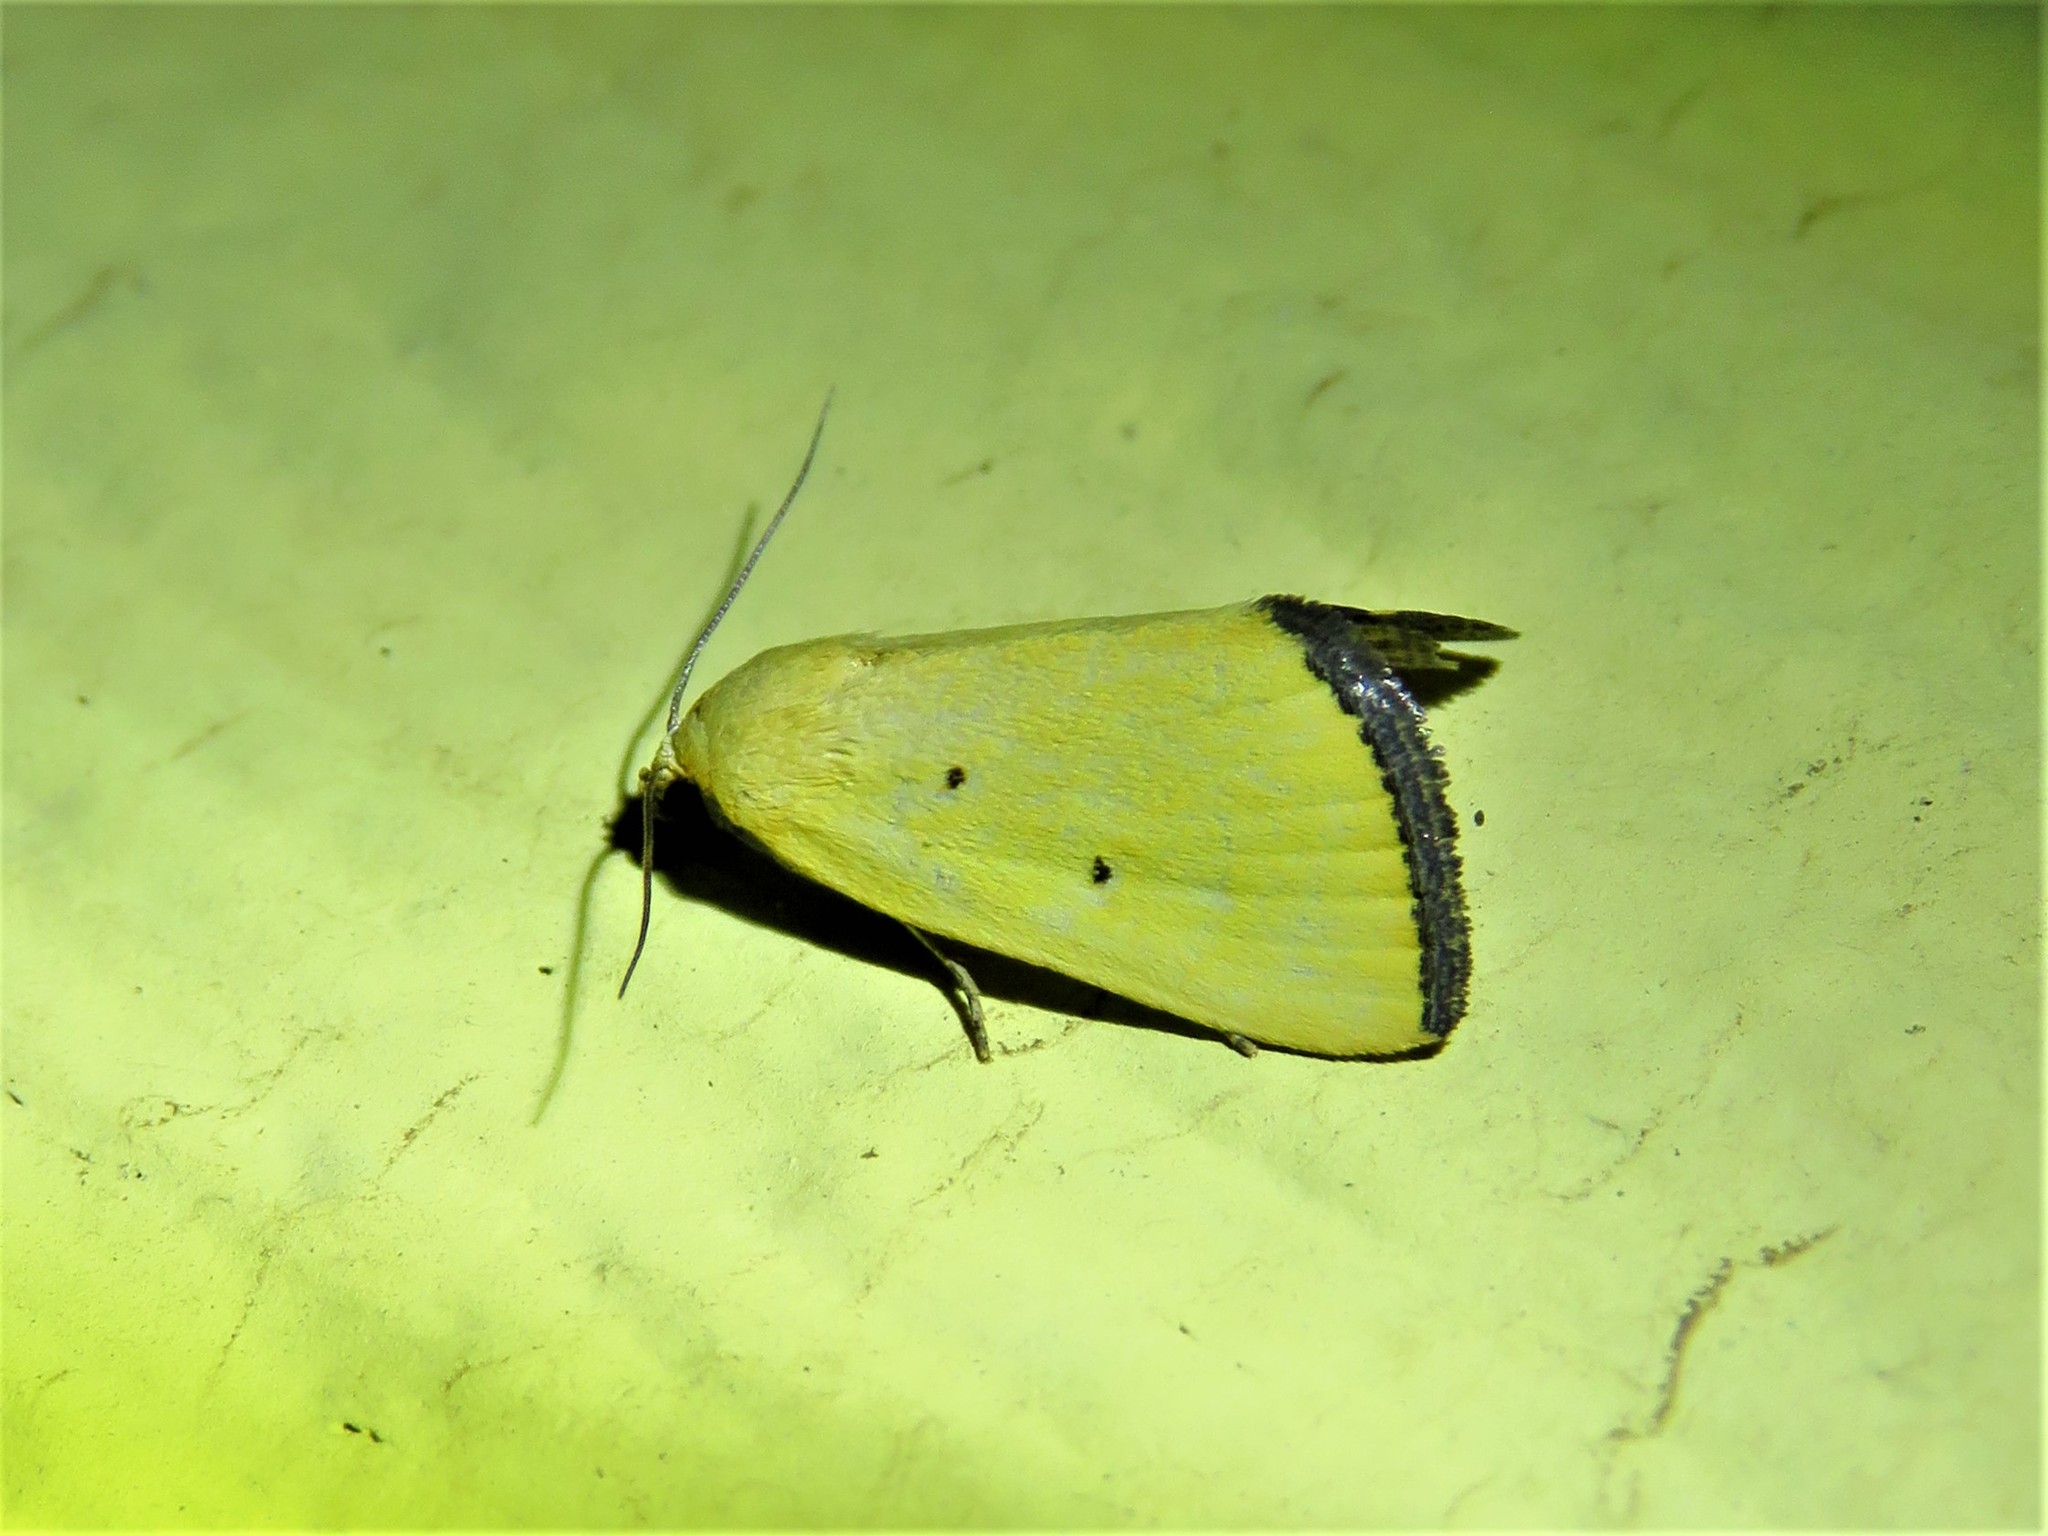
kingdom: Animalia
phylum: Arthropoda
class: Insecta
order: Lepidoptera
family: Noctuidae
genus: Marimatha
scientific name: Marimatha nigrofimbria
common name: Black-bordered lemon moth
